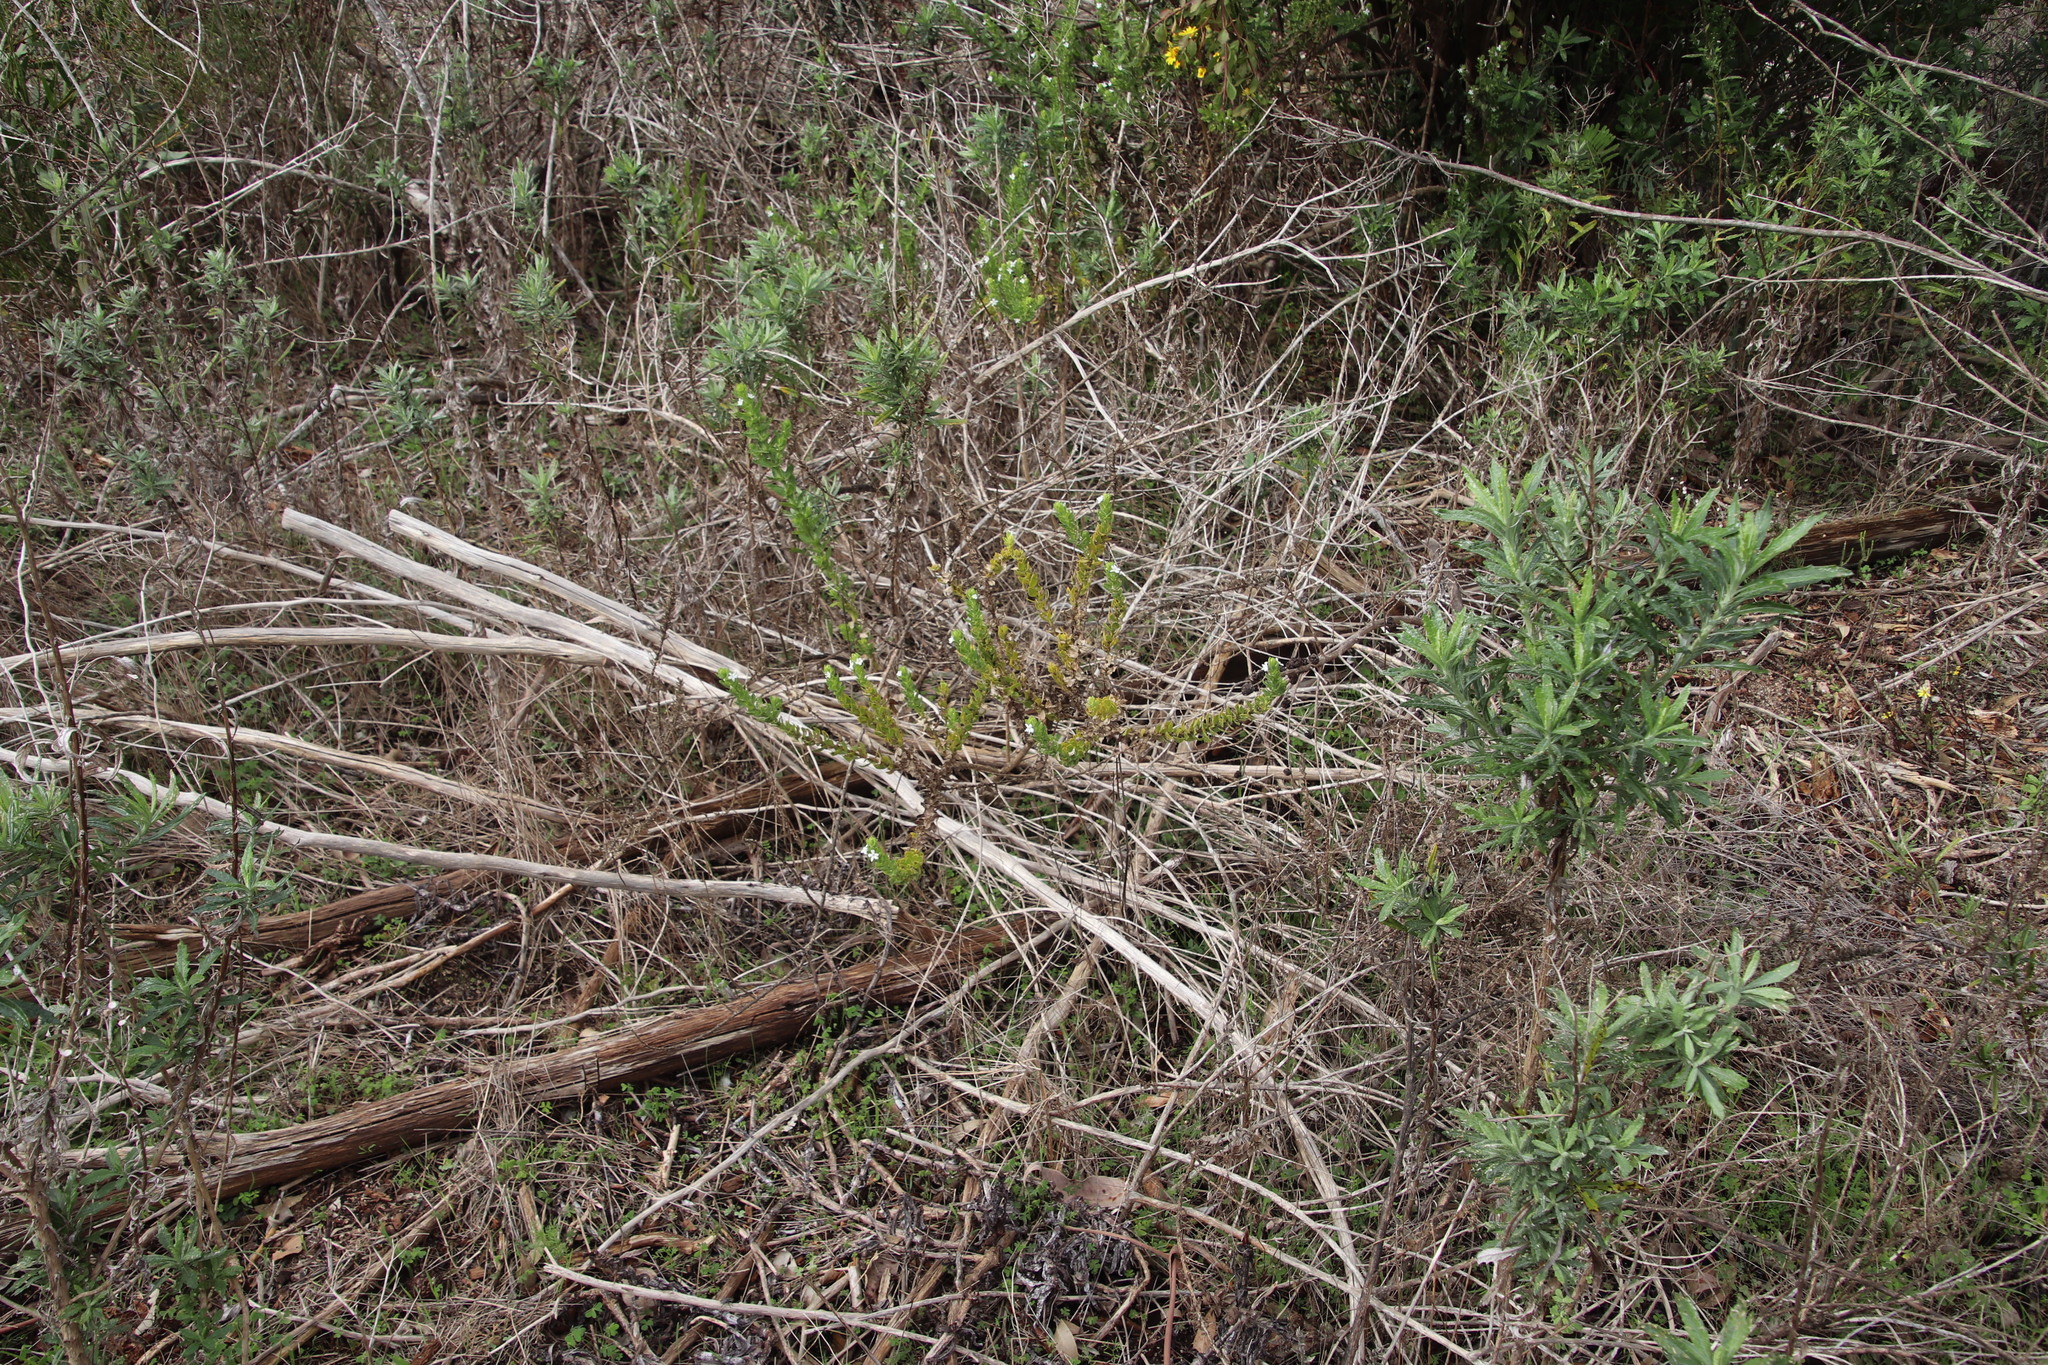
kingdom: Plantae
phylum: Tracheophyta
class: Magnoliopsida
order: Lamiales
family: Scrophulariaceae
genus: Oftia
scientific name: Oftia africana
